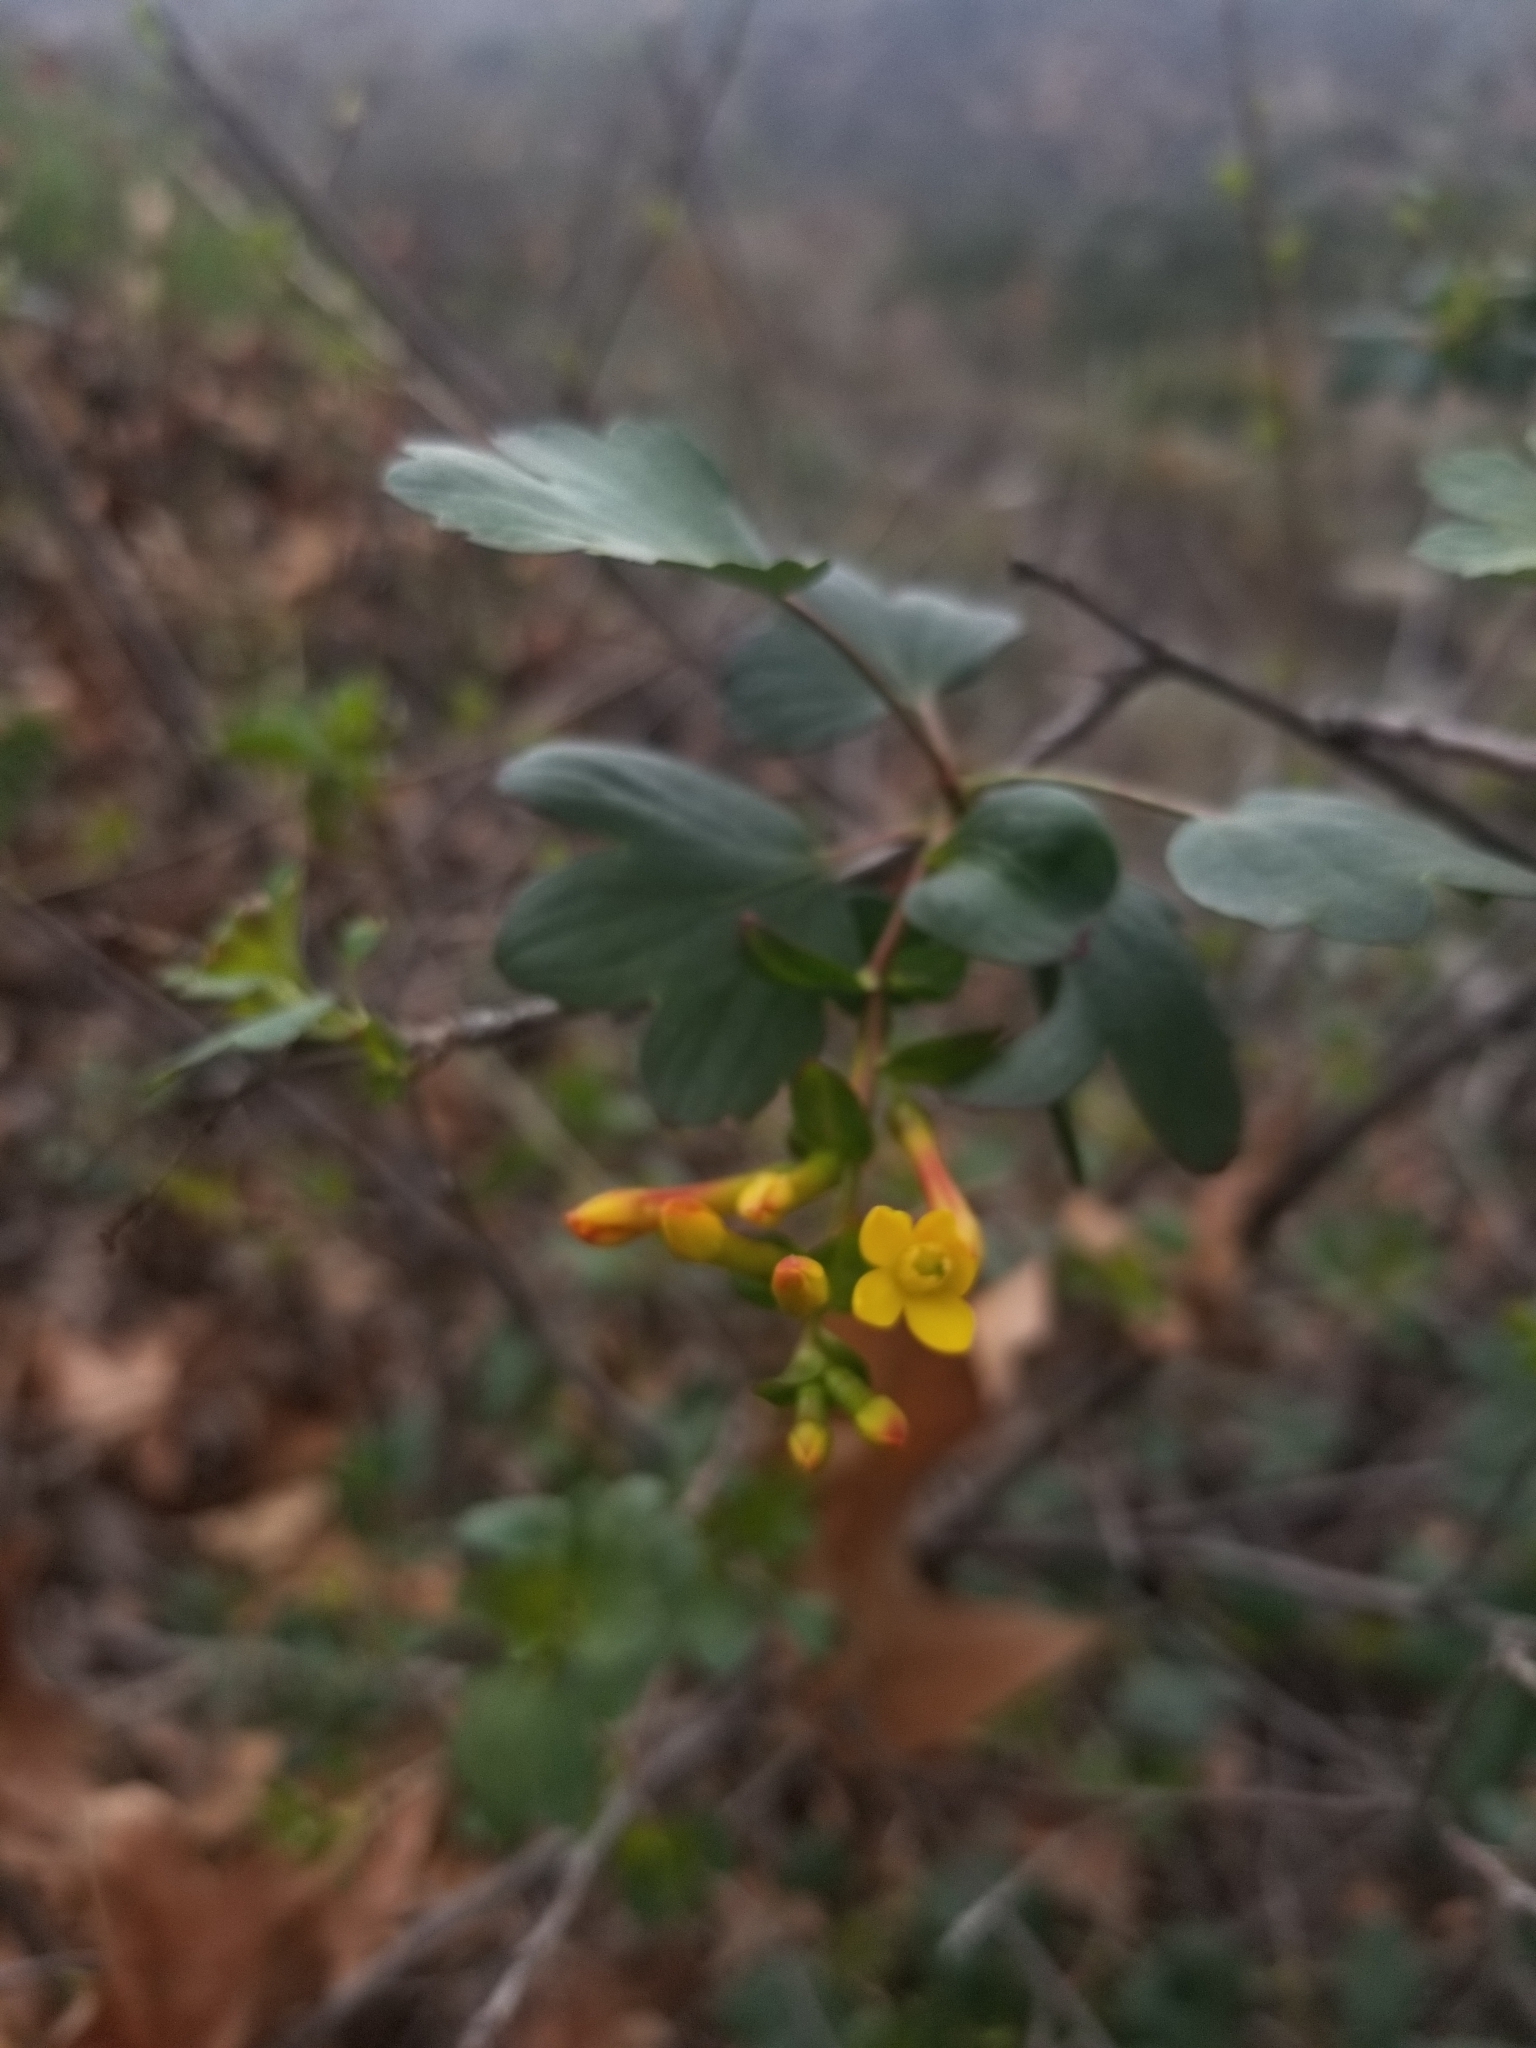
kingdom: Plantae
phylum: Tracheophyta
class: Magnoliopsida
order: Saxifragales
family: Grossulariaceae
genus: Ribes
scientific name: Ribes aureum
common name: Golden currant
